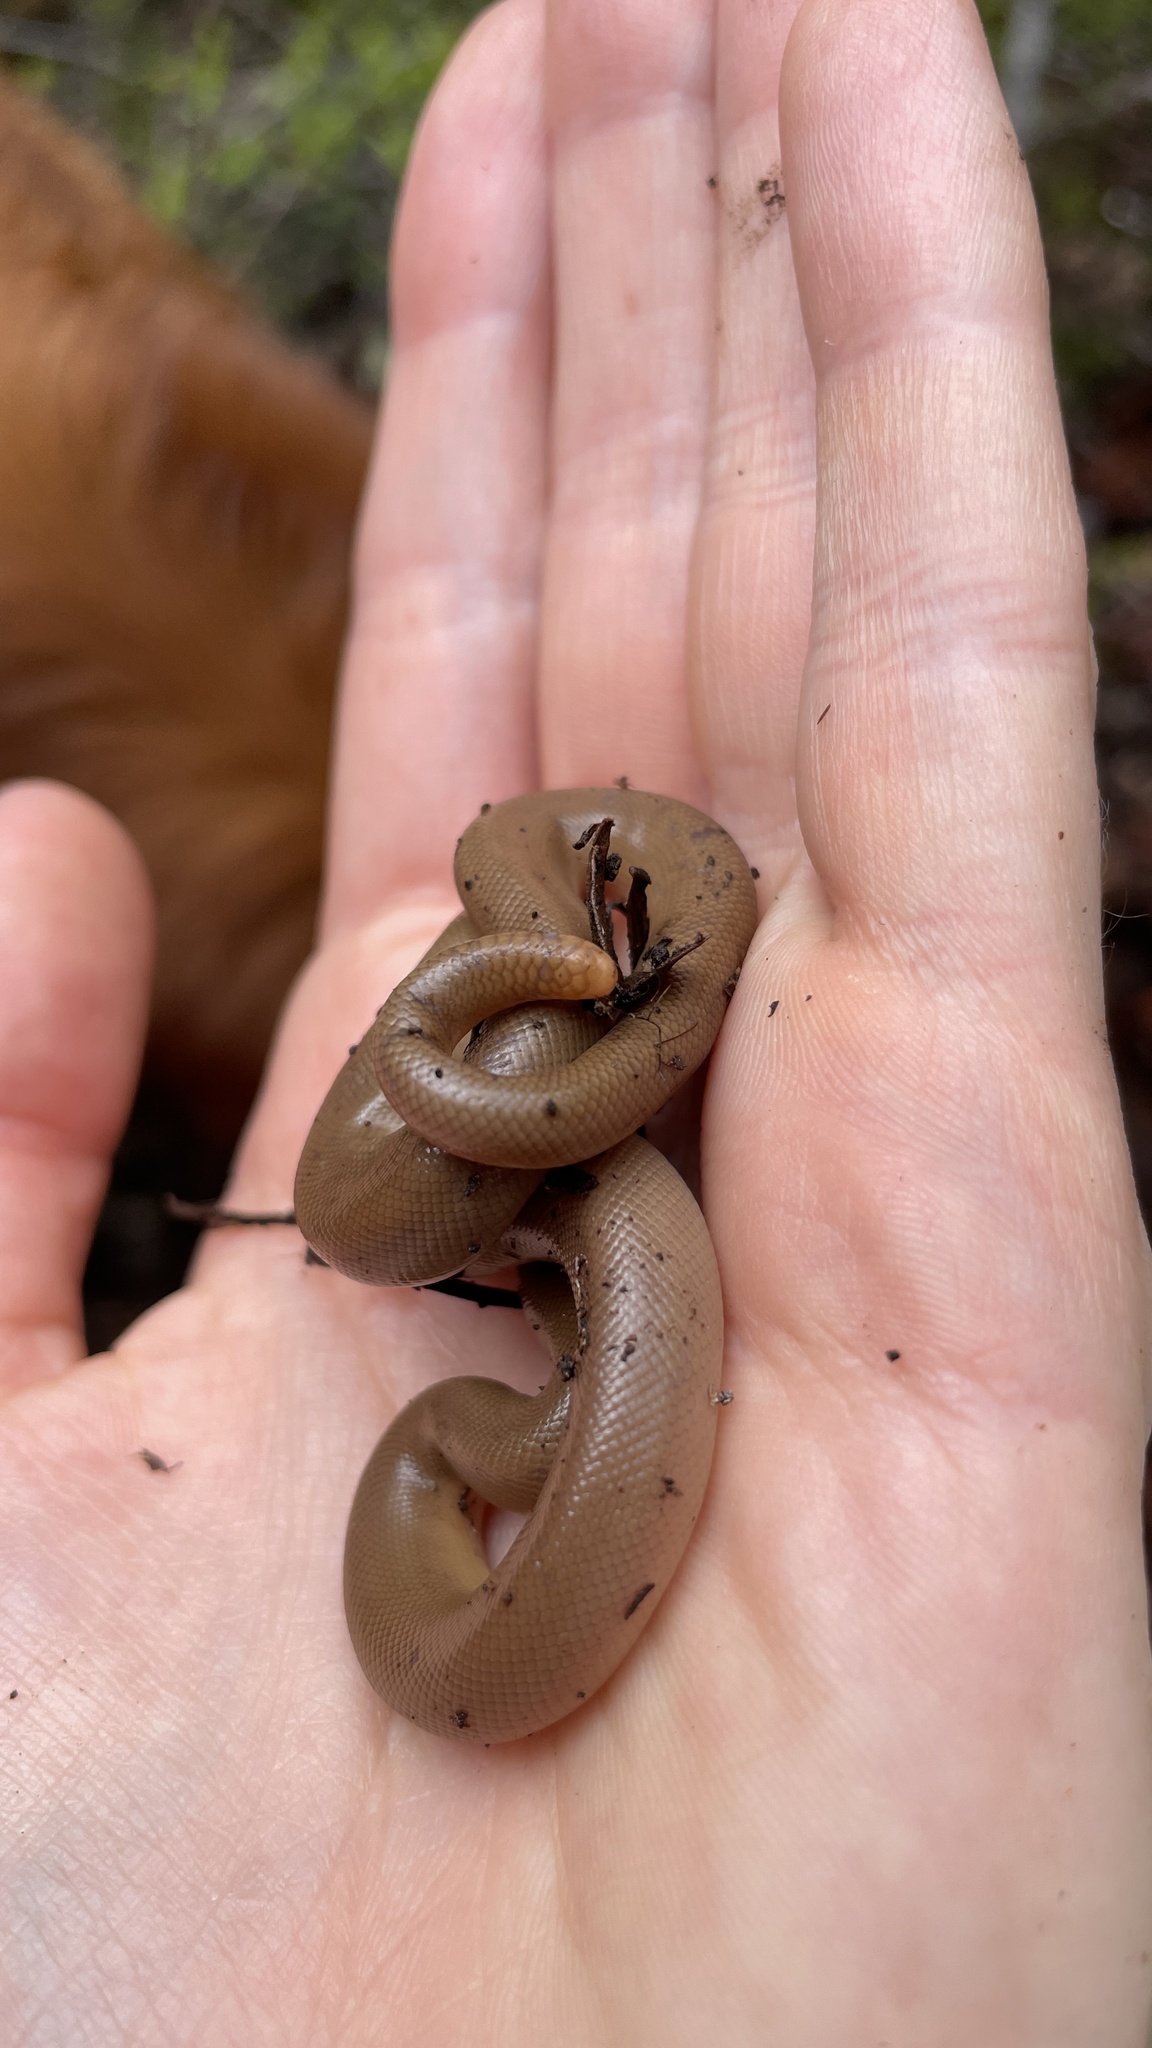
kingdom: Animalia
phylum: Chordata
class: Squamata
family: Boidae
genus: Charina
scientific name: Charina bottae
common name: Northern rubber boa
